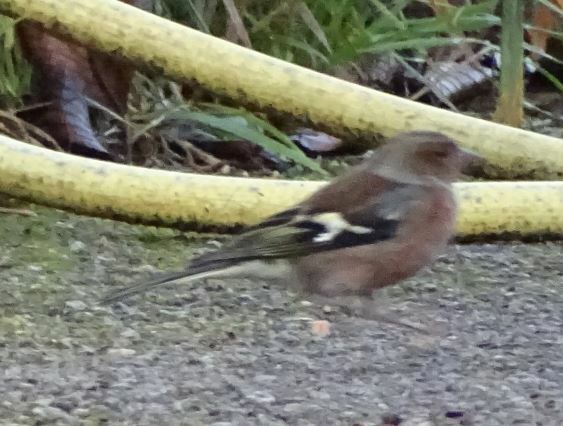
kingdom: Animalia
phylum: Chordata
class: Aves
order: Passeriformes
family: Fringillidae
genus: Fringilla
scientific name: Fringilla coelebs
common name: Common chaffinch
